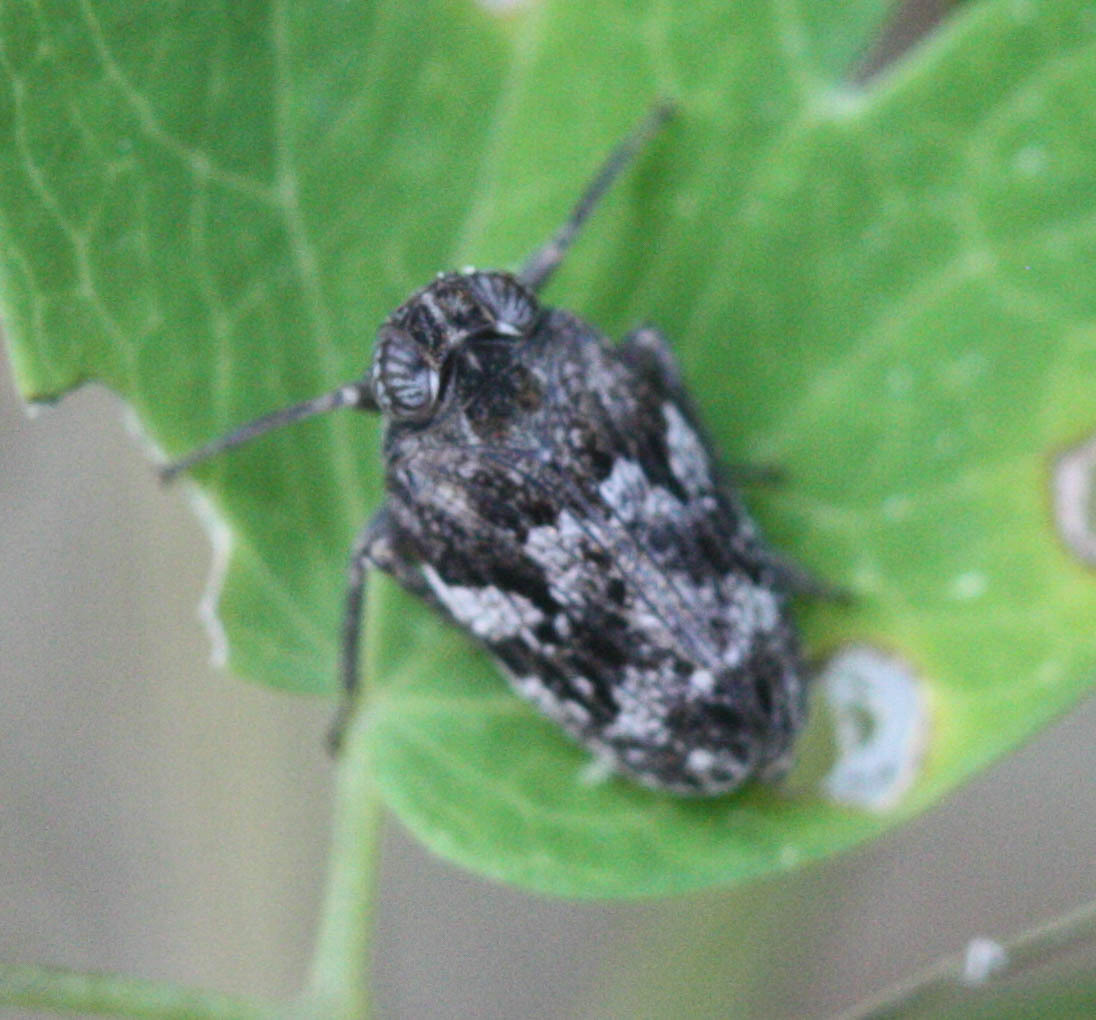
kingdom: Animalia
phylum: Arthropoda
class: Insecta
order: Hemiptera
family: Issidae
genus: Picumna
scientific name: Picumna maculata
